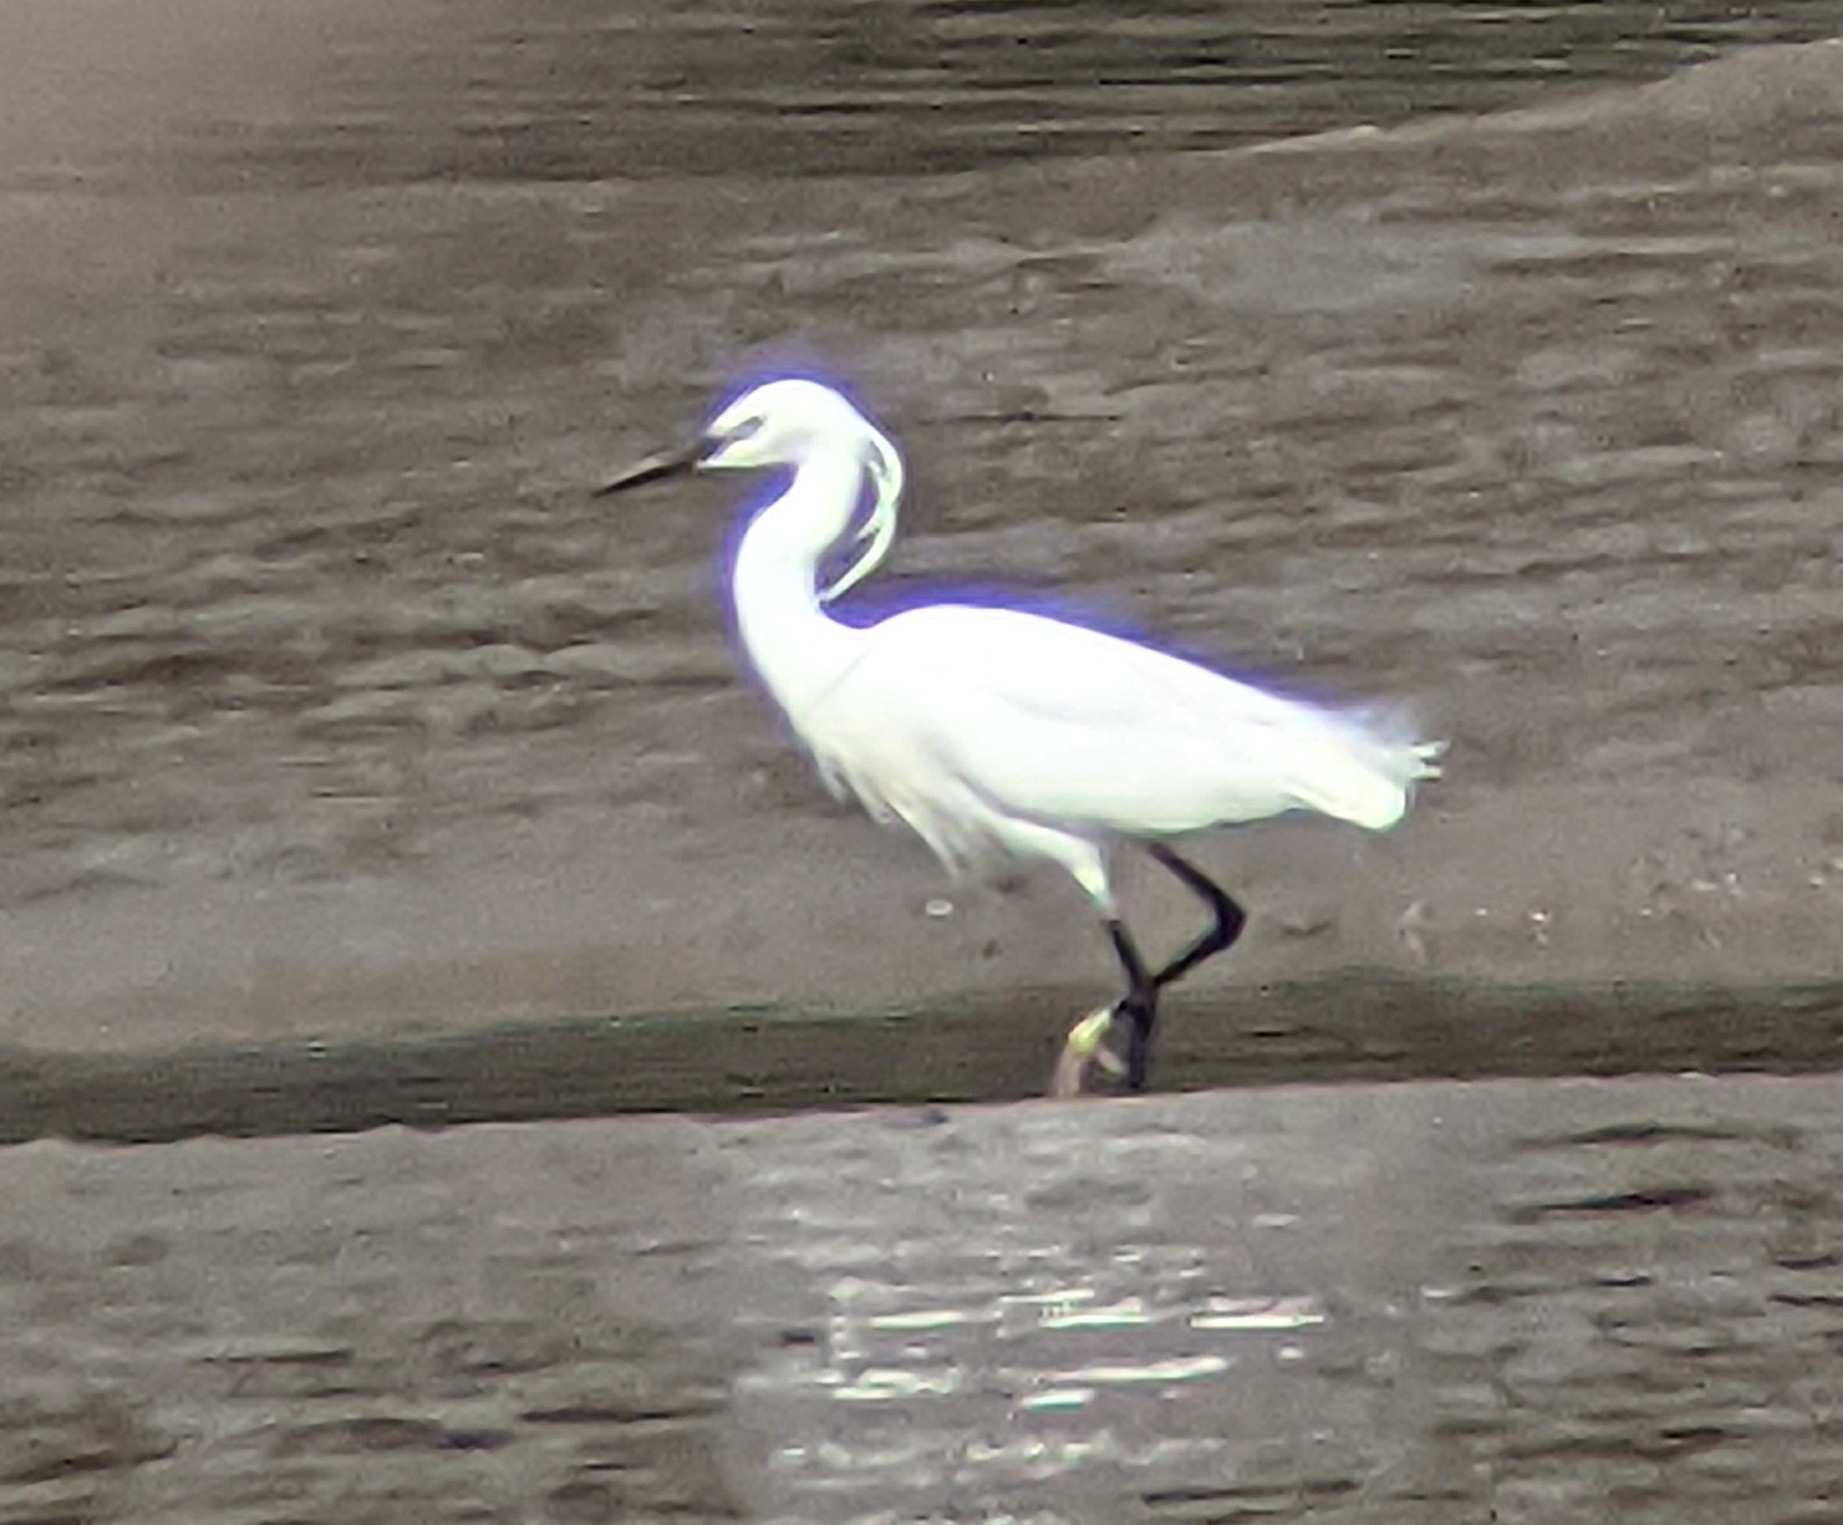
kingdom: Animalia
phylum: Chordata
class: Aves
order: Pelecaniformes
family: Ardeidae
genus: Egretta
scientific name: Egretta garzetta
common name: Little egret
